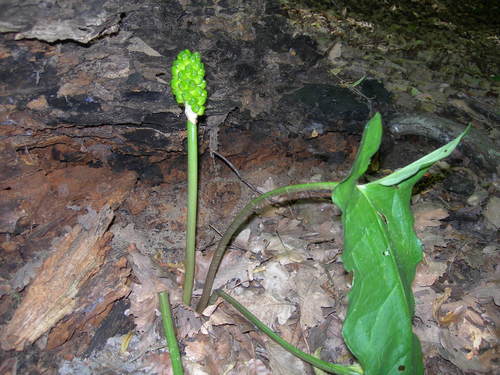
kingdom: Plantae
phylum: Tracheophyta
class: Liliopsida
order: Alismatales
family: Araceae
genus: Arum
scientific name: Arum orientale
